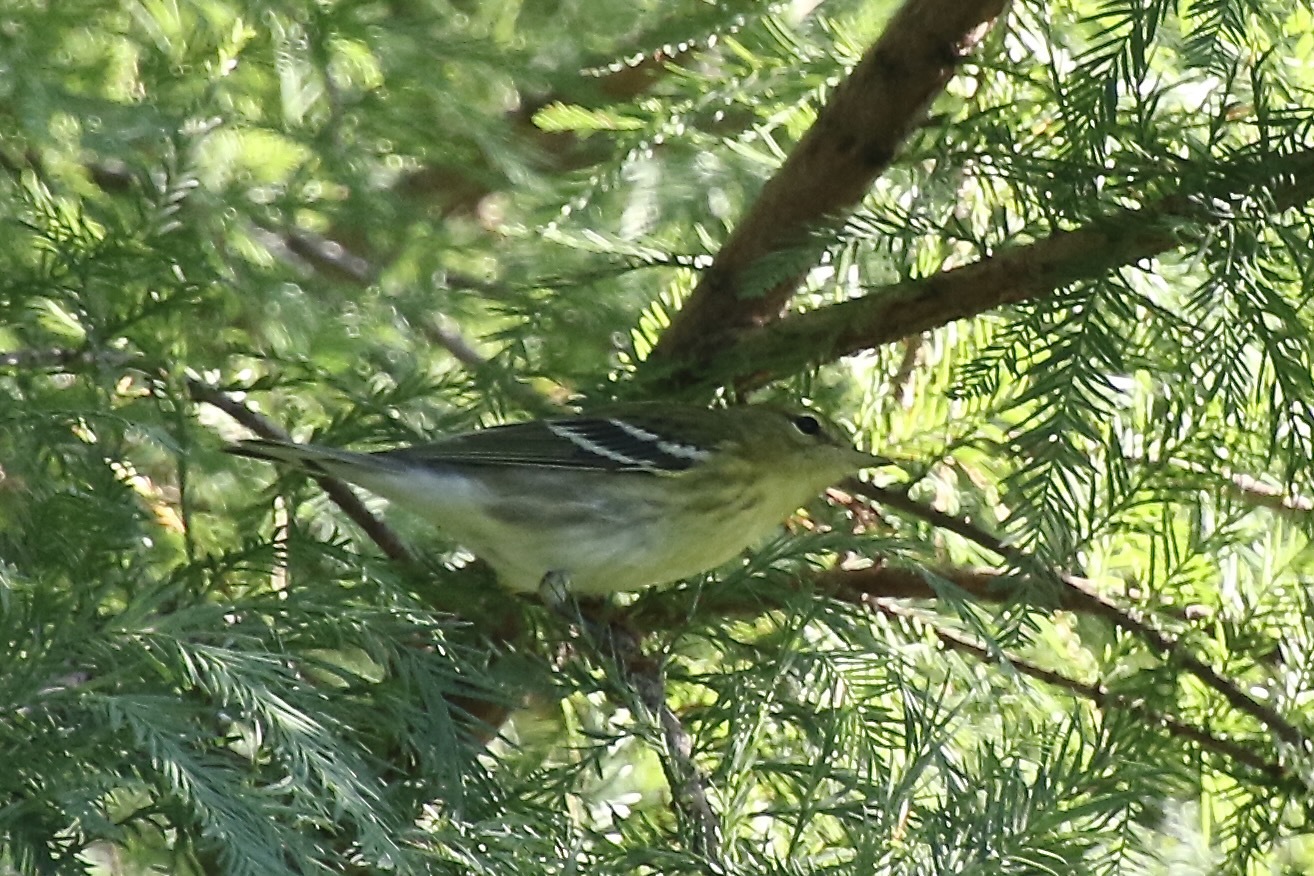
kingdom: Animalia
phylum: Chordata
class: Aves
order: Passeriformes
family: Parulidae
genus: Setophaga
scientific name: Setophaga striata
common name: Blackpoll warbler
